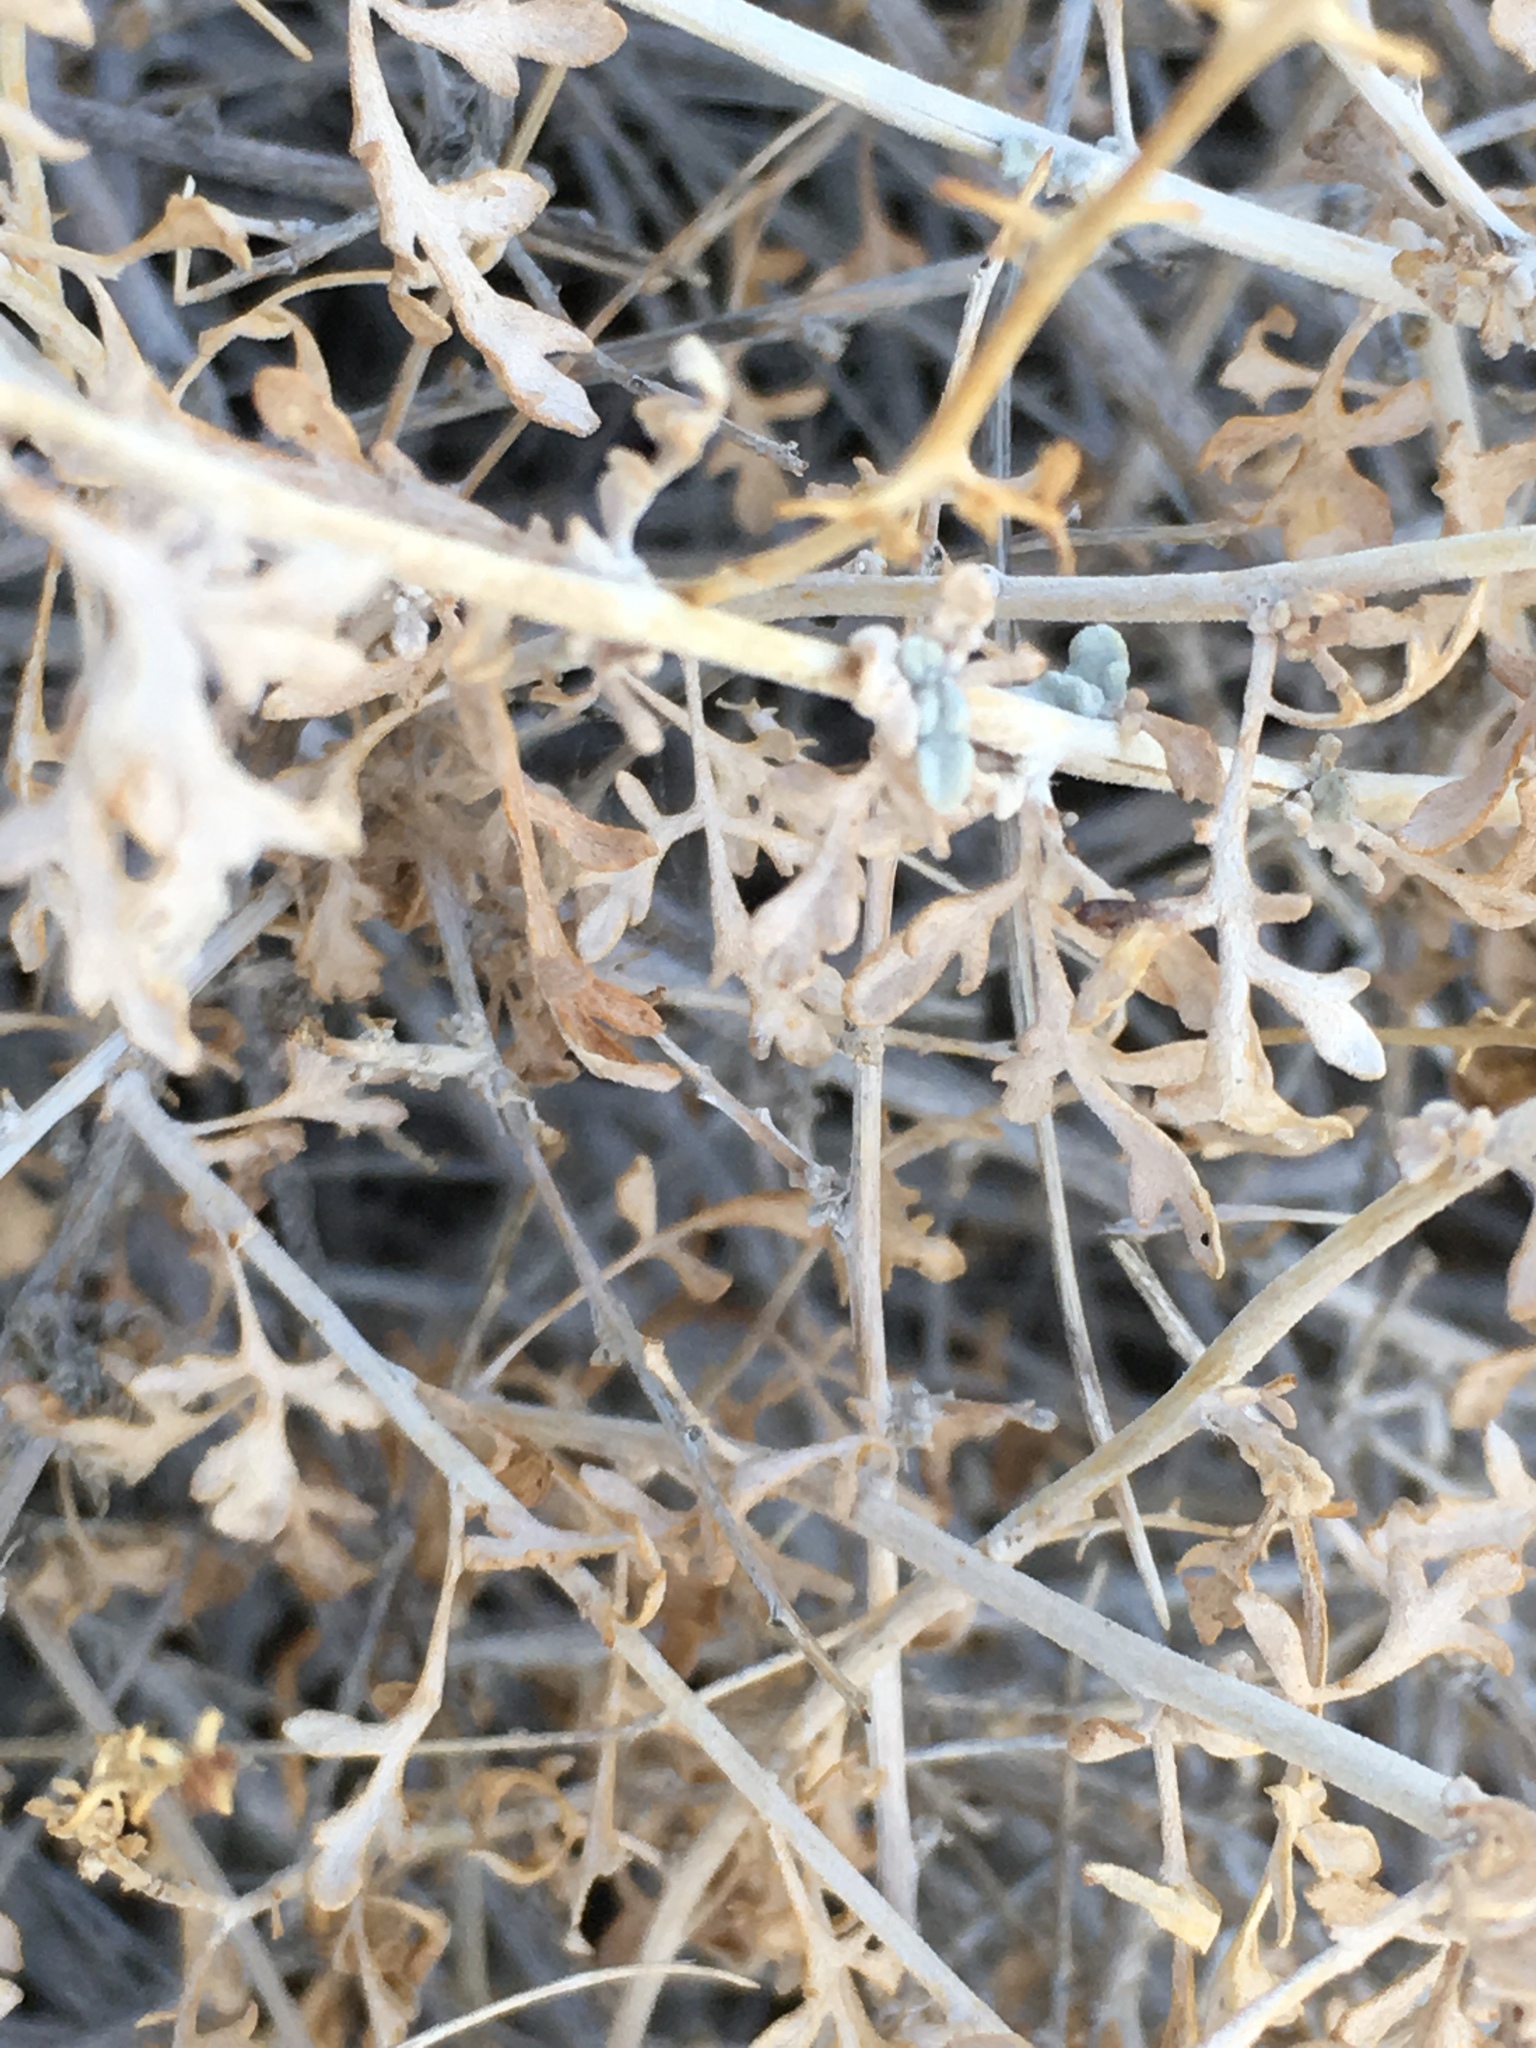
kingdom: Plantae
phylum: Tracheophyta
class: Magnoliopsida
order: Asterales
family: Asteraceae
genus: Ambrosia
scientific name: Ambrosia dumosa
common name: Bur-sage
